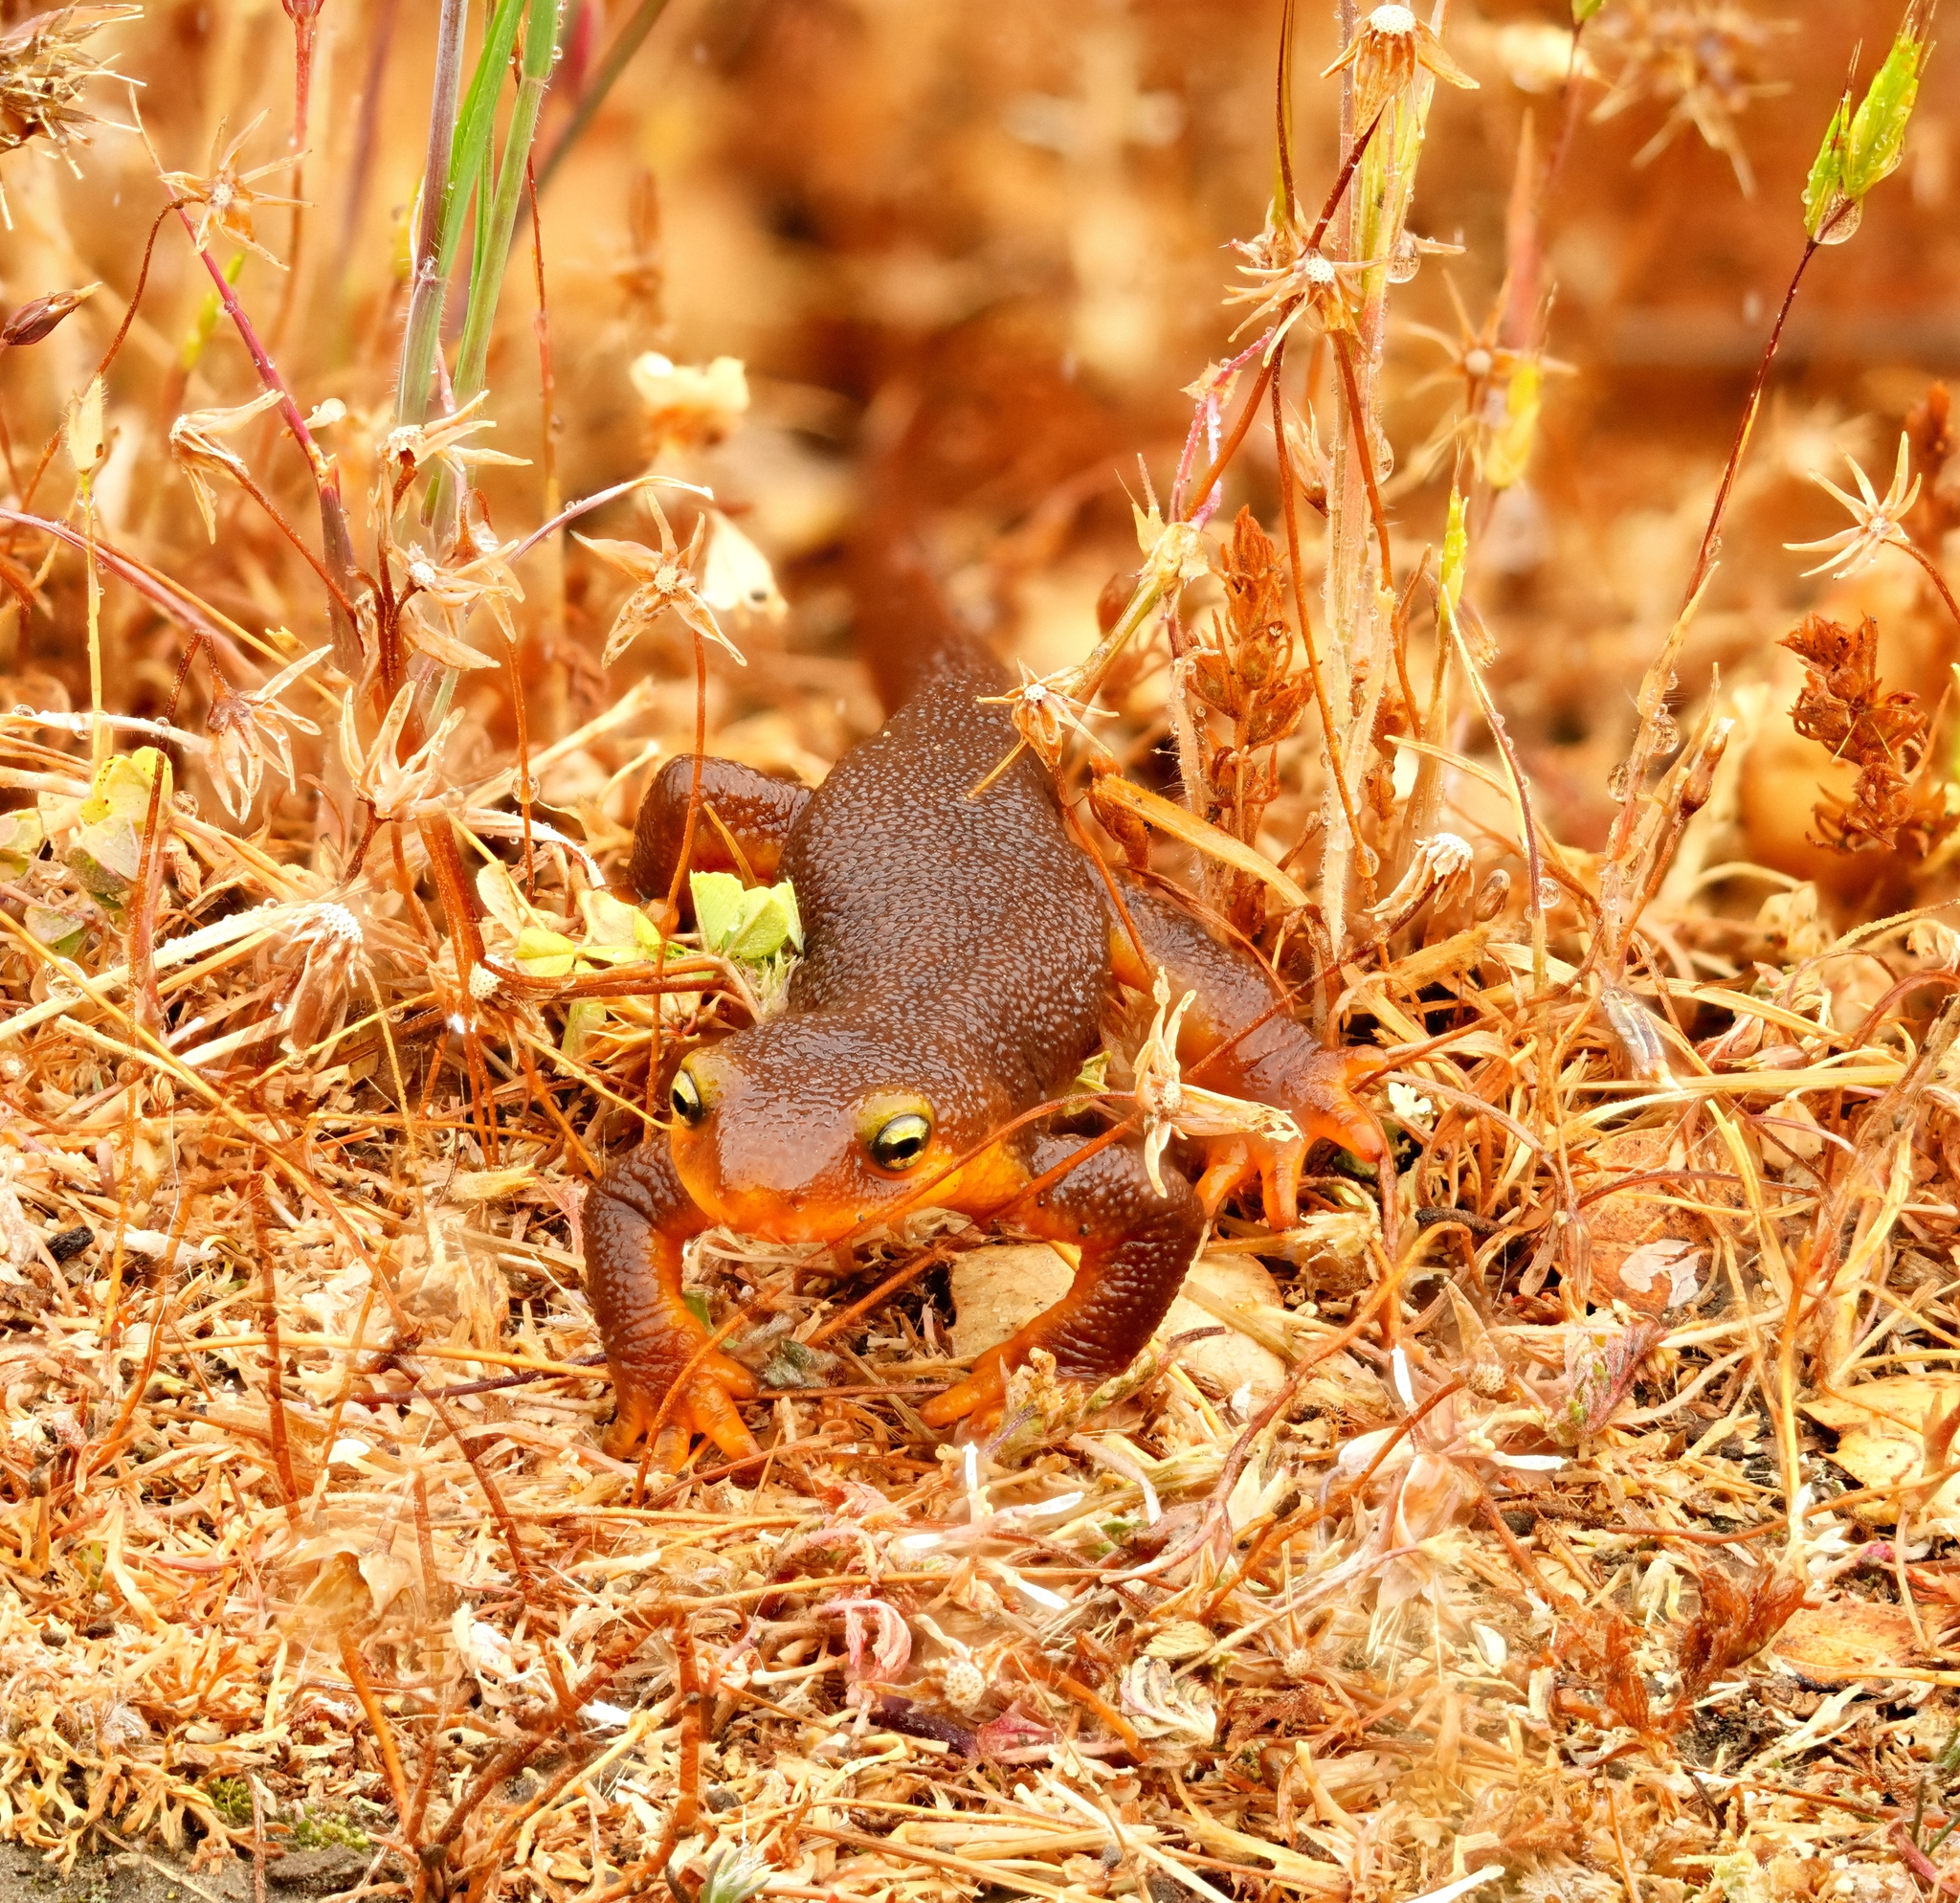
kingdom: Animalia
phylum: Chordata
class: Amphibia
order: Caudata
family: Salamandridae
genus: Taricha
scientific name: Taricha torosa
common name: California newt
